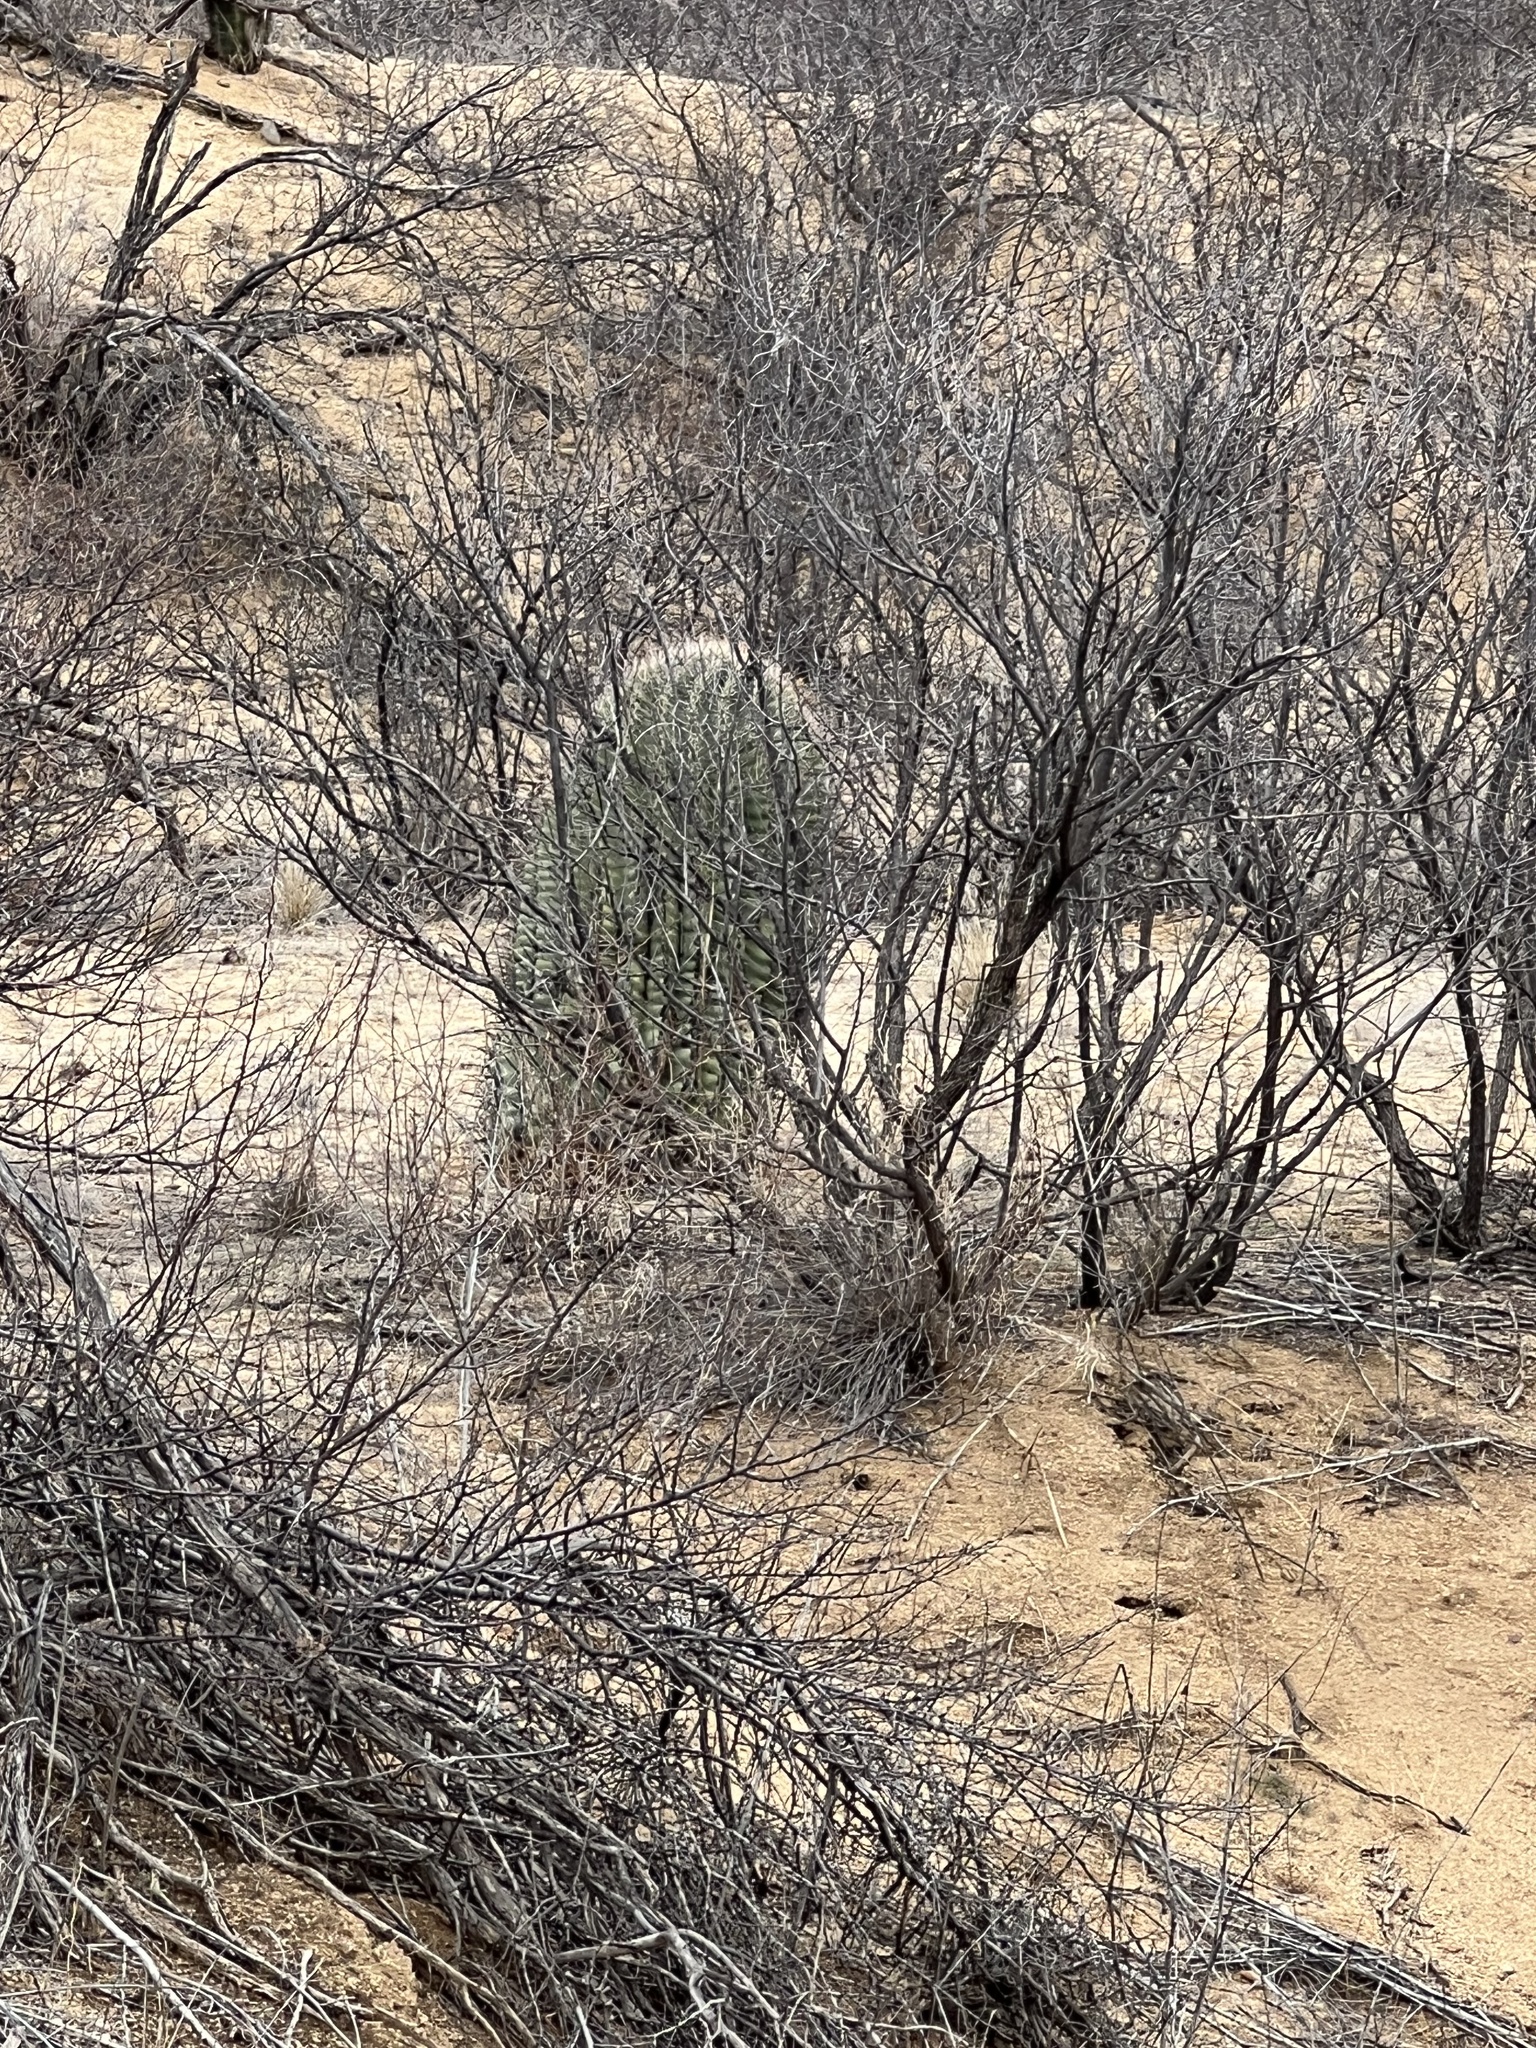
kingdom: Plantae
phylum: Tracheophyta
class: Magnoliopsida
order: Caryophyllales
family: Cactaceae
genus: Ferocactus
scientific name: Ferocactus wislizeni
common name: Candy barrel cactus
